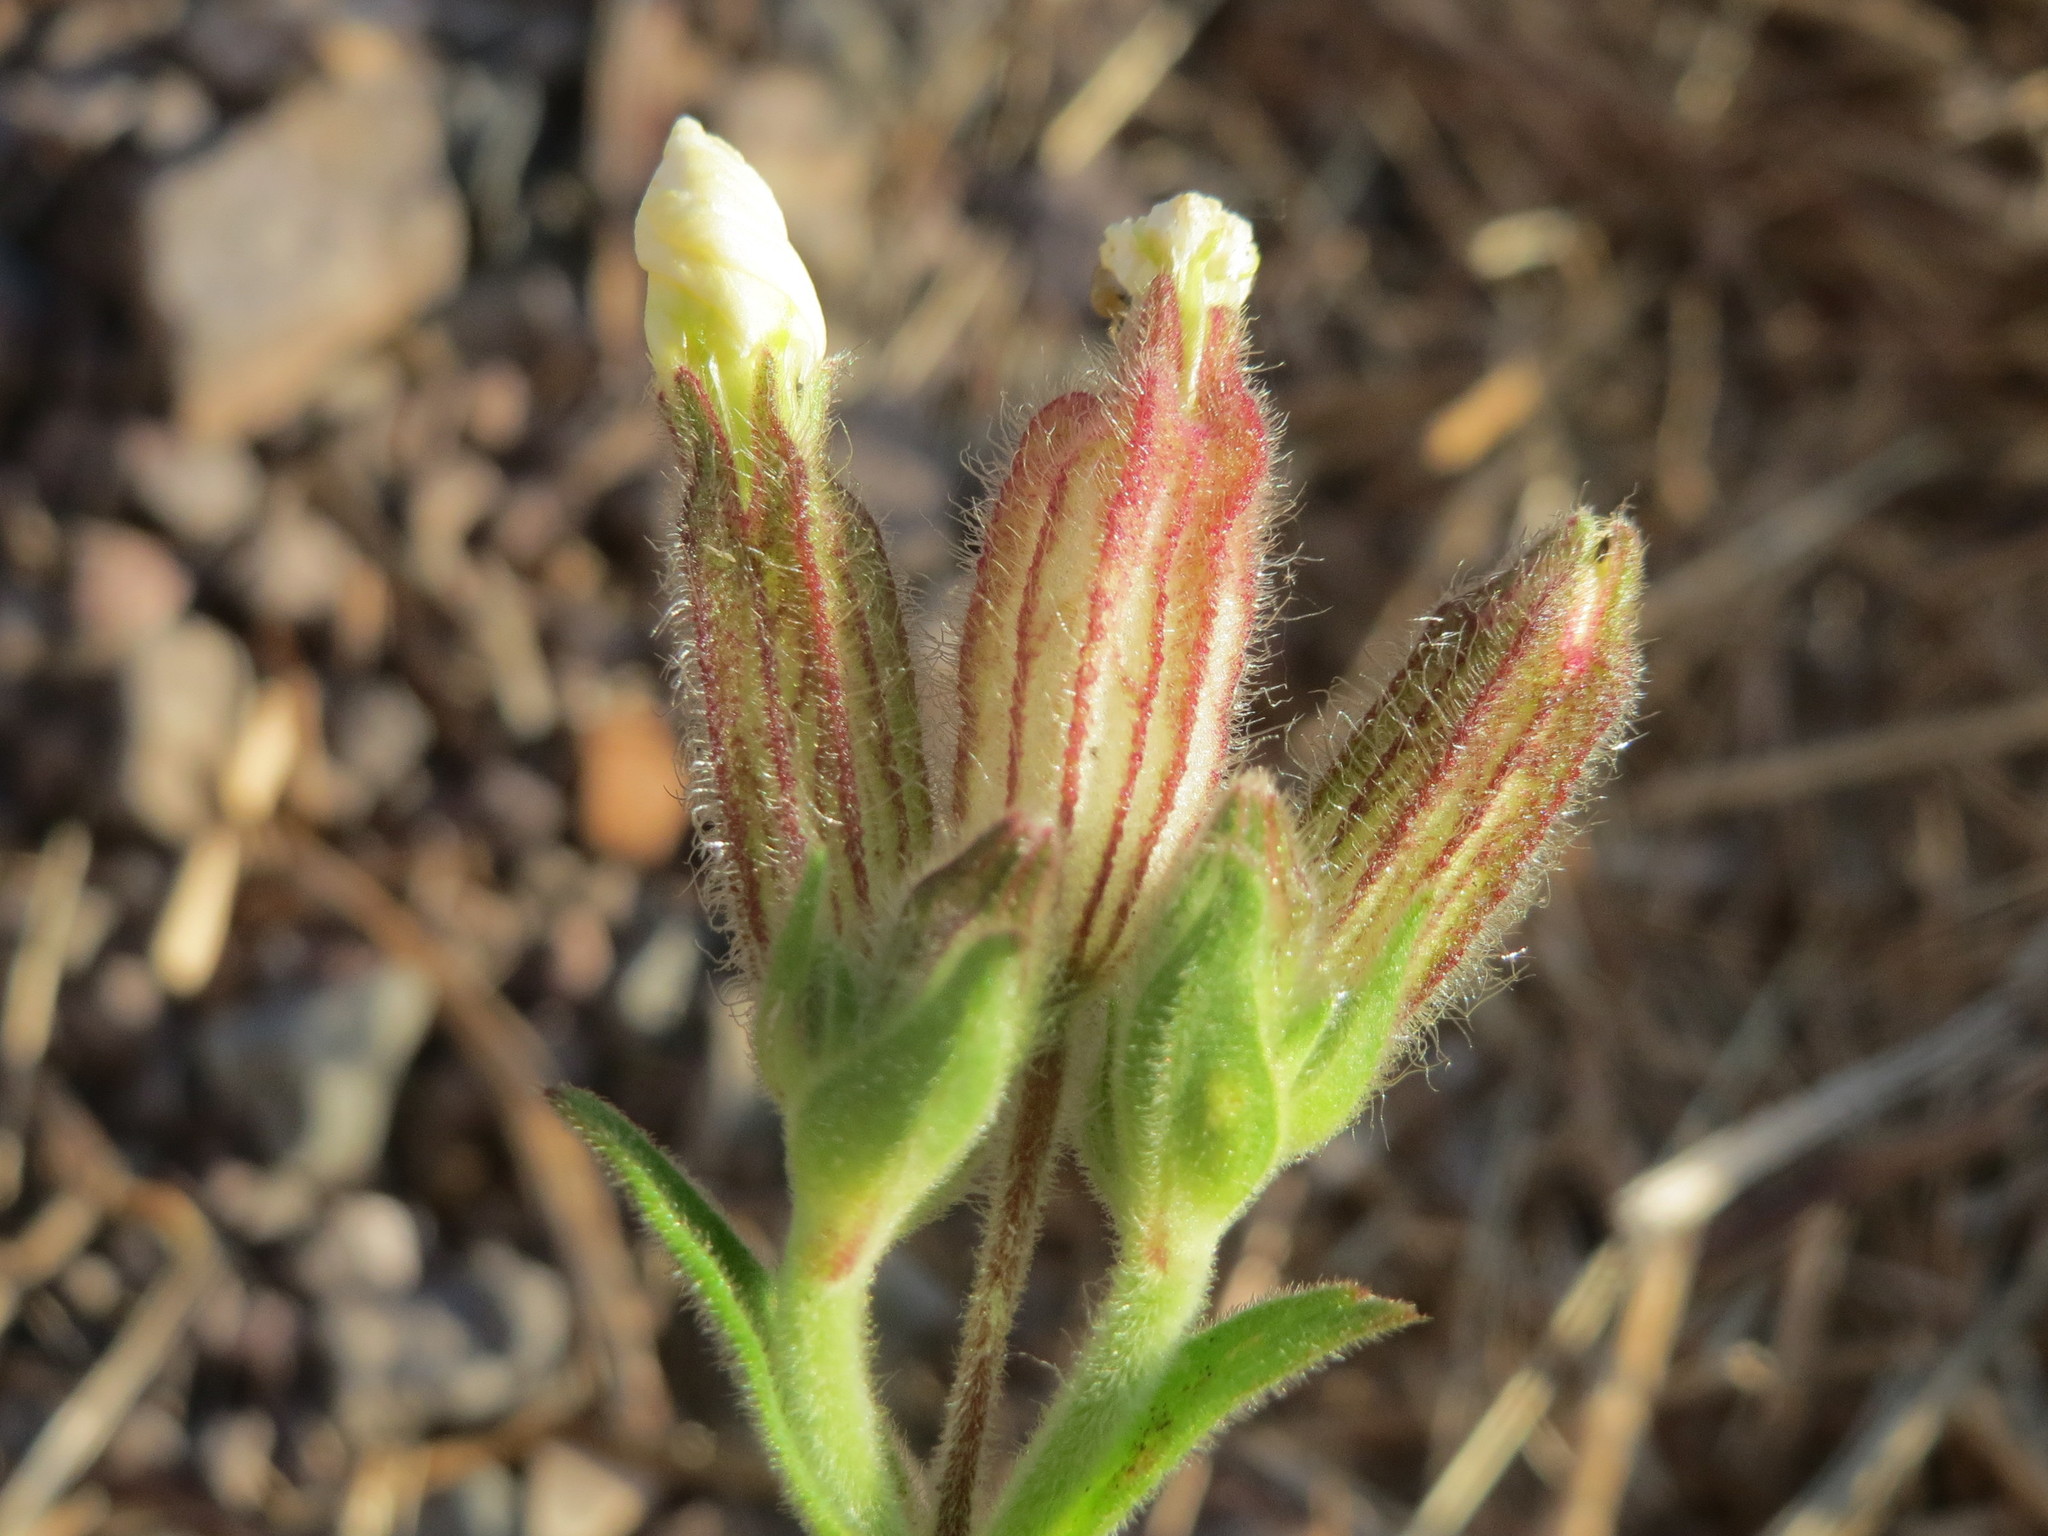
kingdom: Plantae
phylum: Tracheophyta
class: Magnoliopsida
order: Caryophyllales
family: Caryophyllaceae
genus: Silene
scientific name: Silene latifolia
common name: White campion
